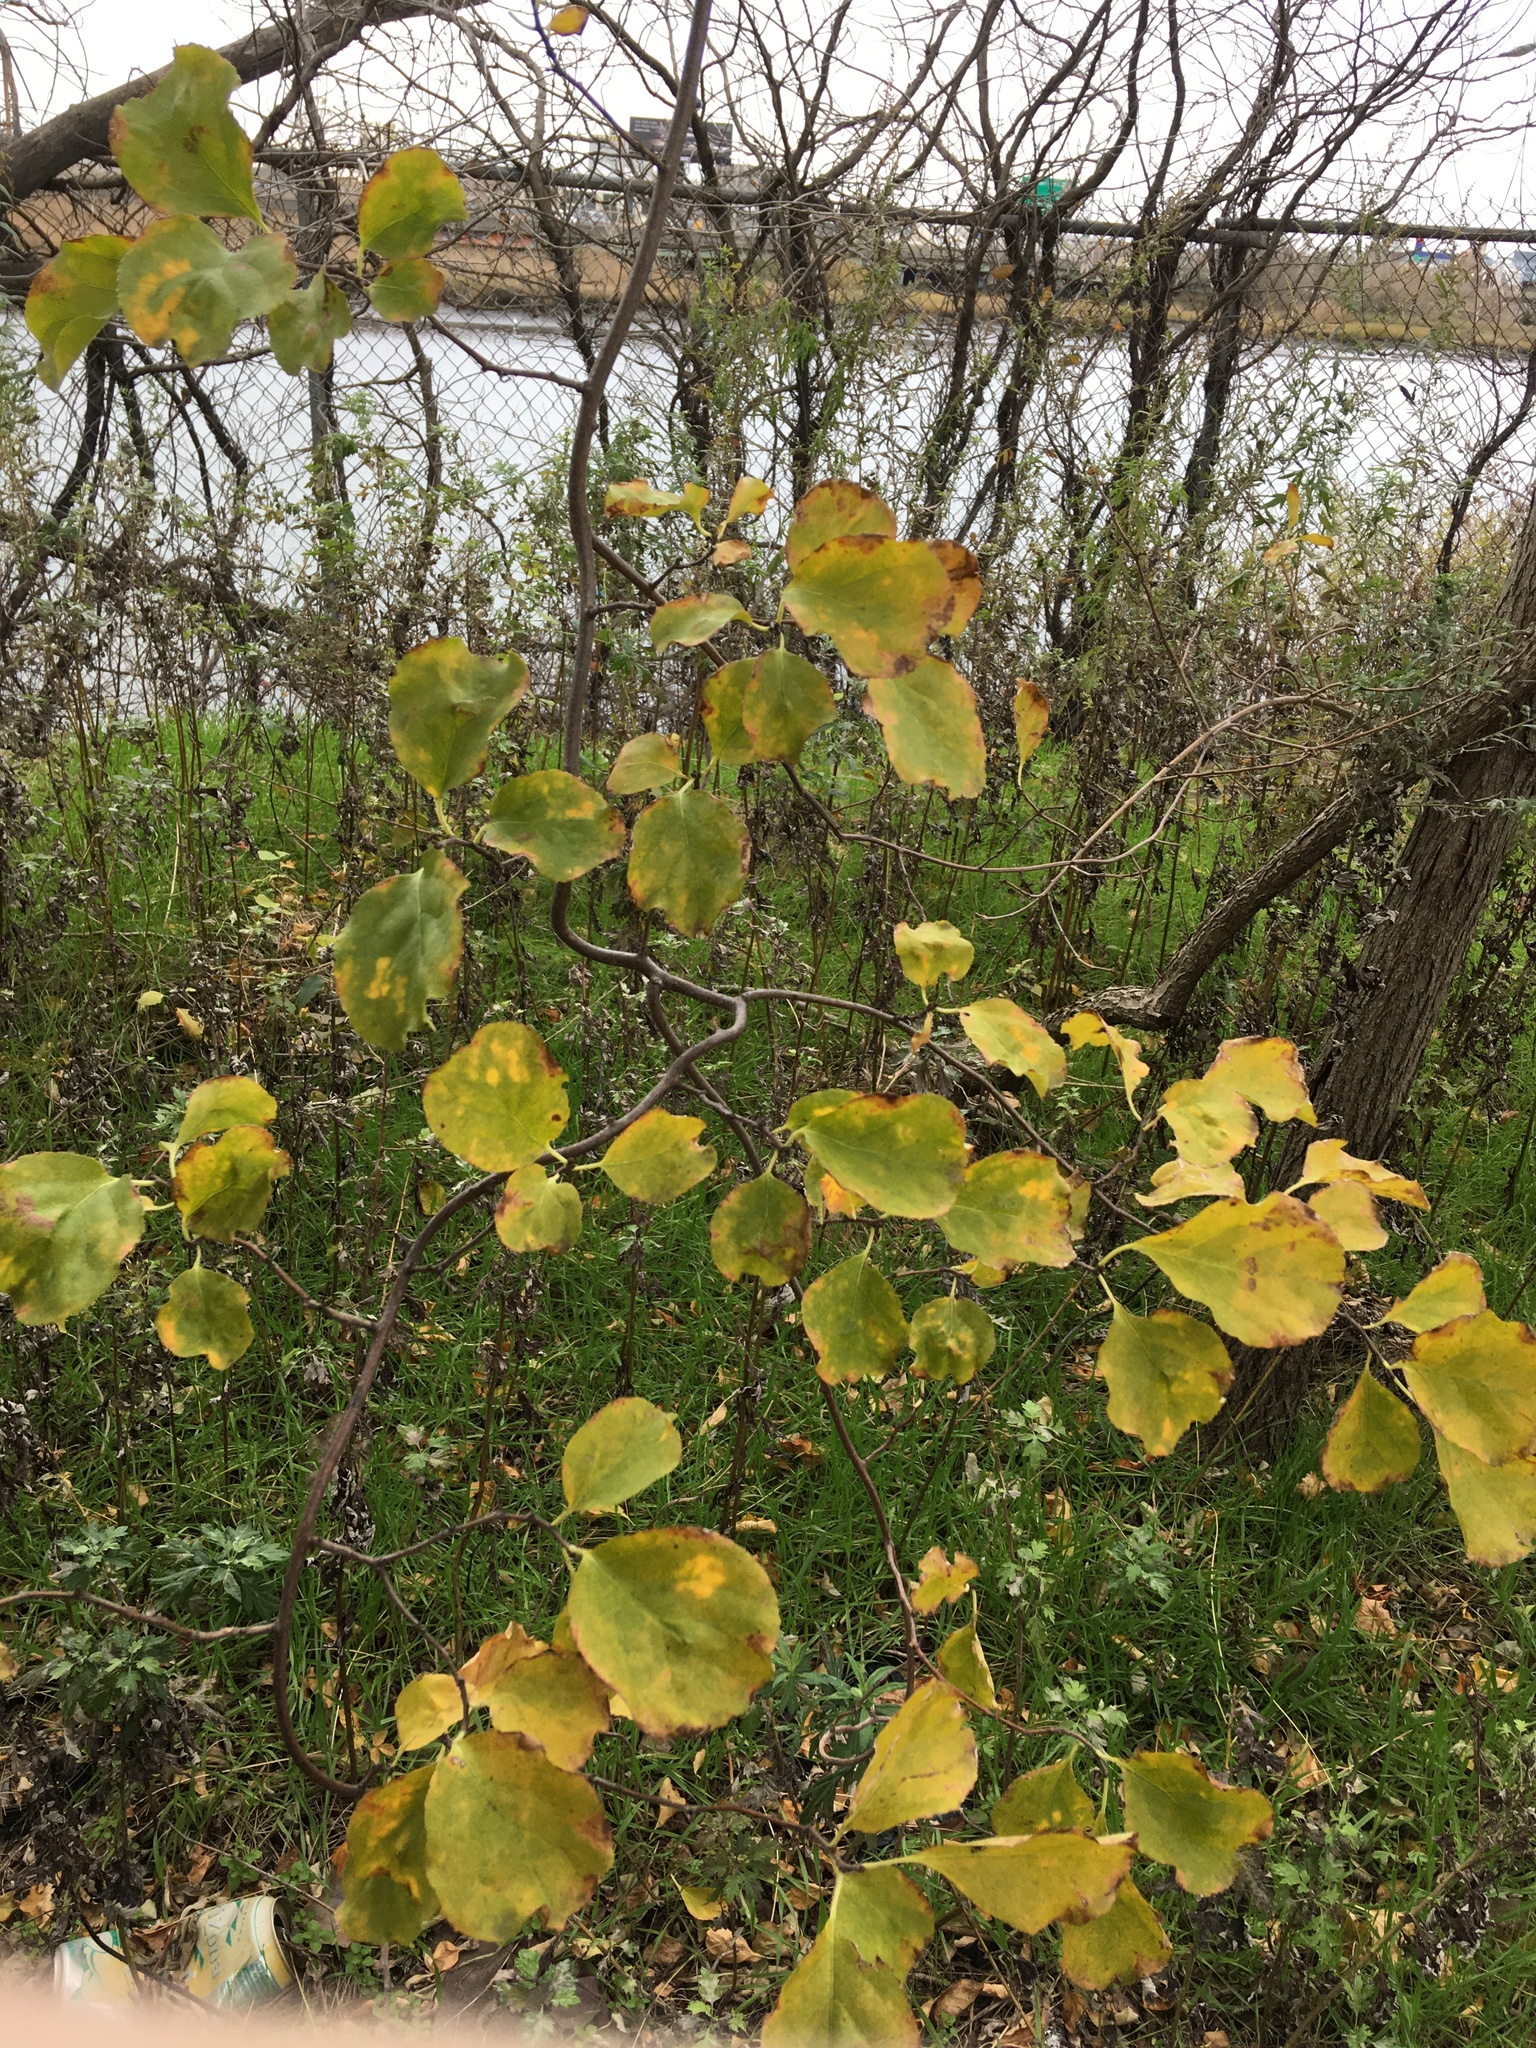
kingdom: Plantae
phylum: Tracheophyta
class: Magnoliopsida
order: Celastrales
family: Celastraceae
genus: Celastrus
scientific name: Celastrus orbiculatus
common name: Oriental bittersweet
